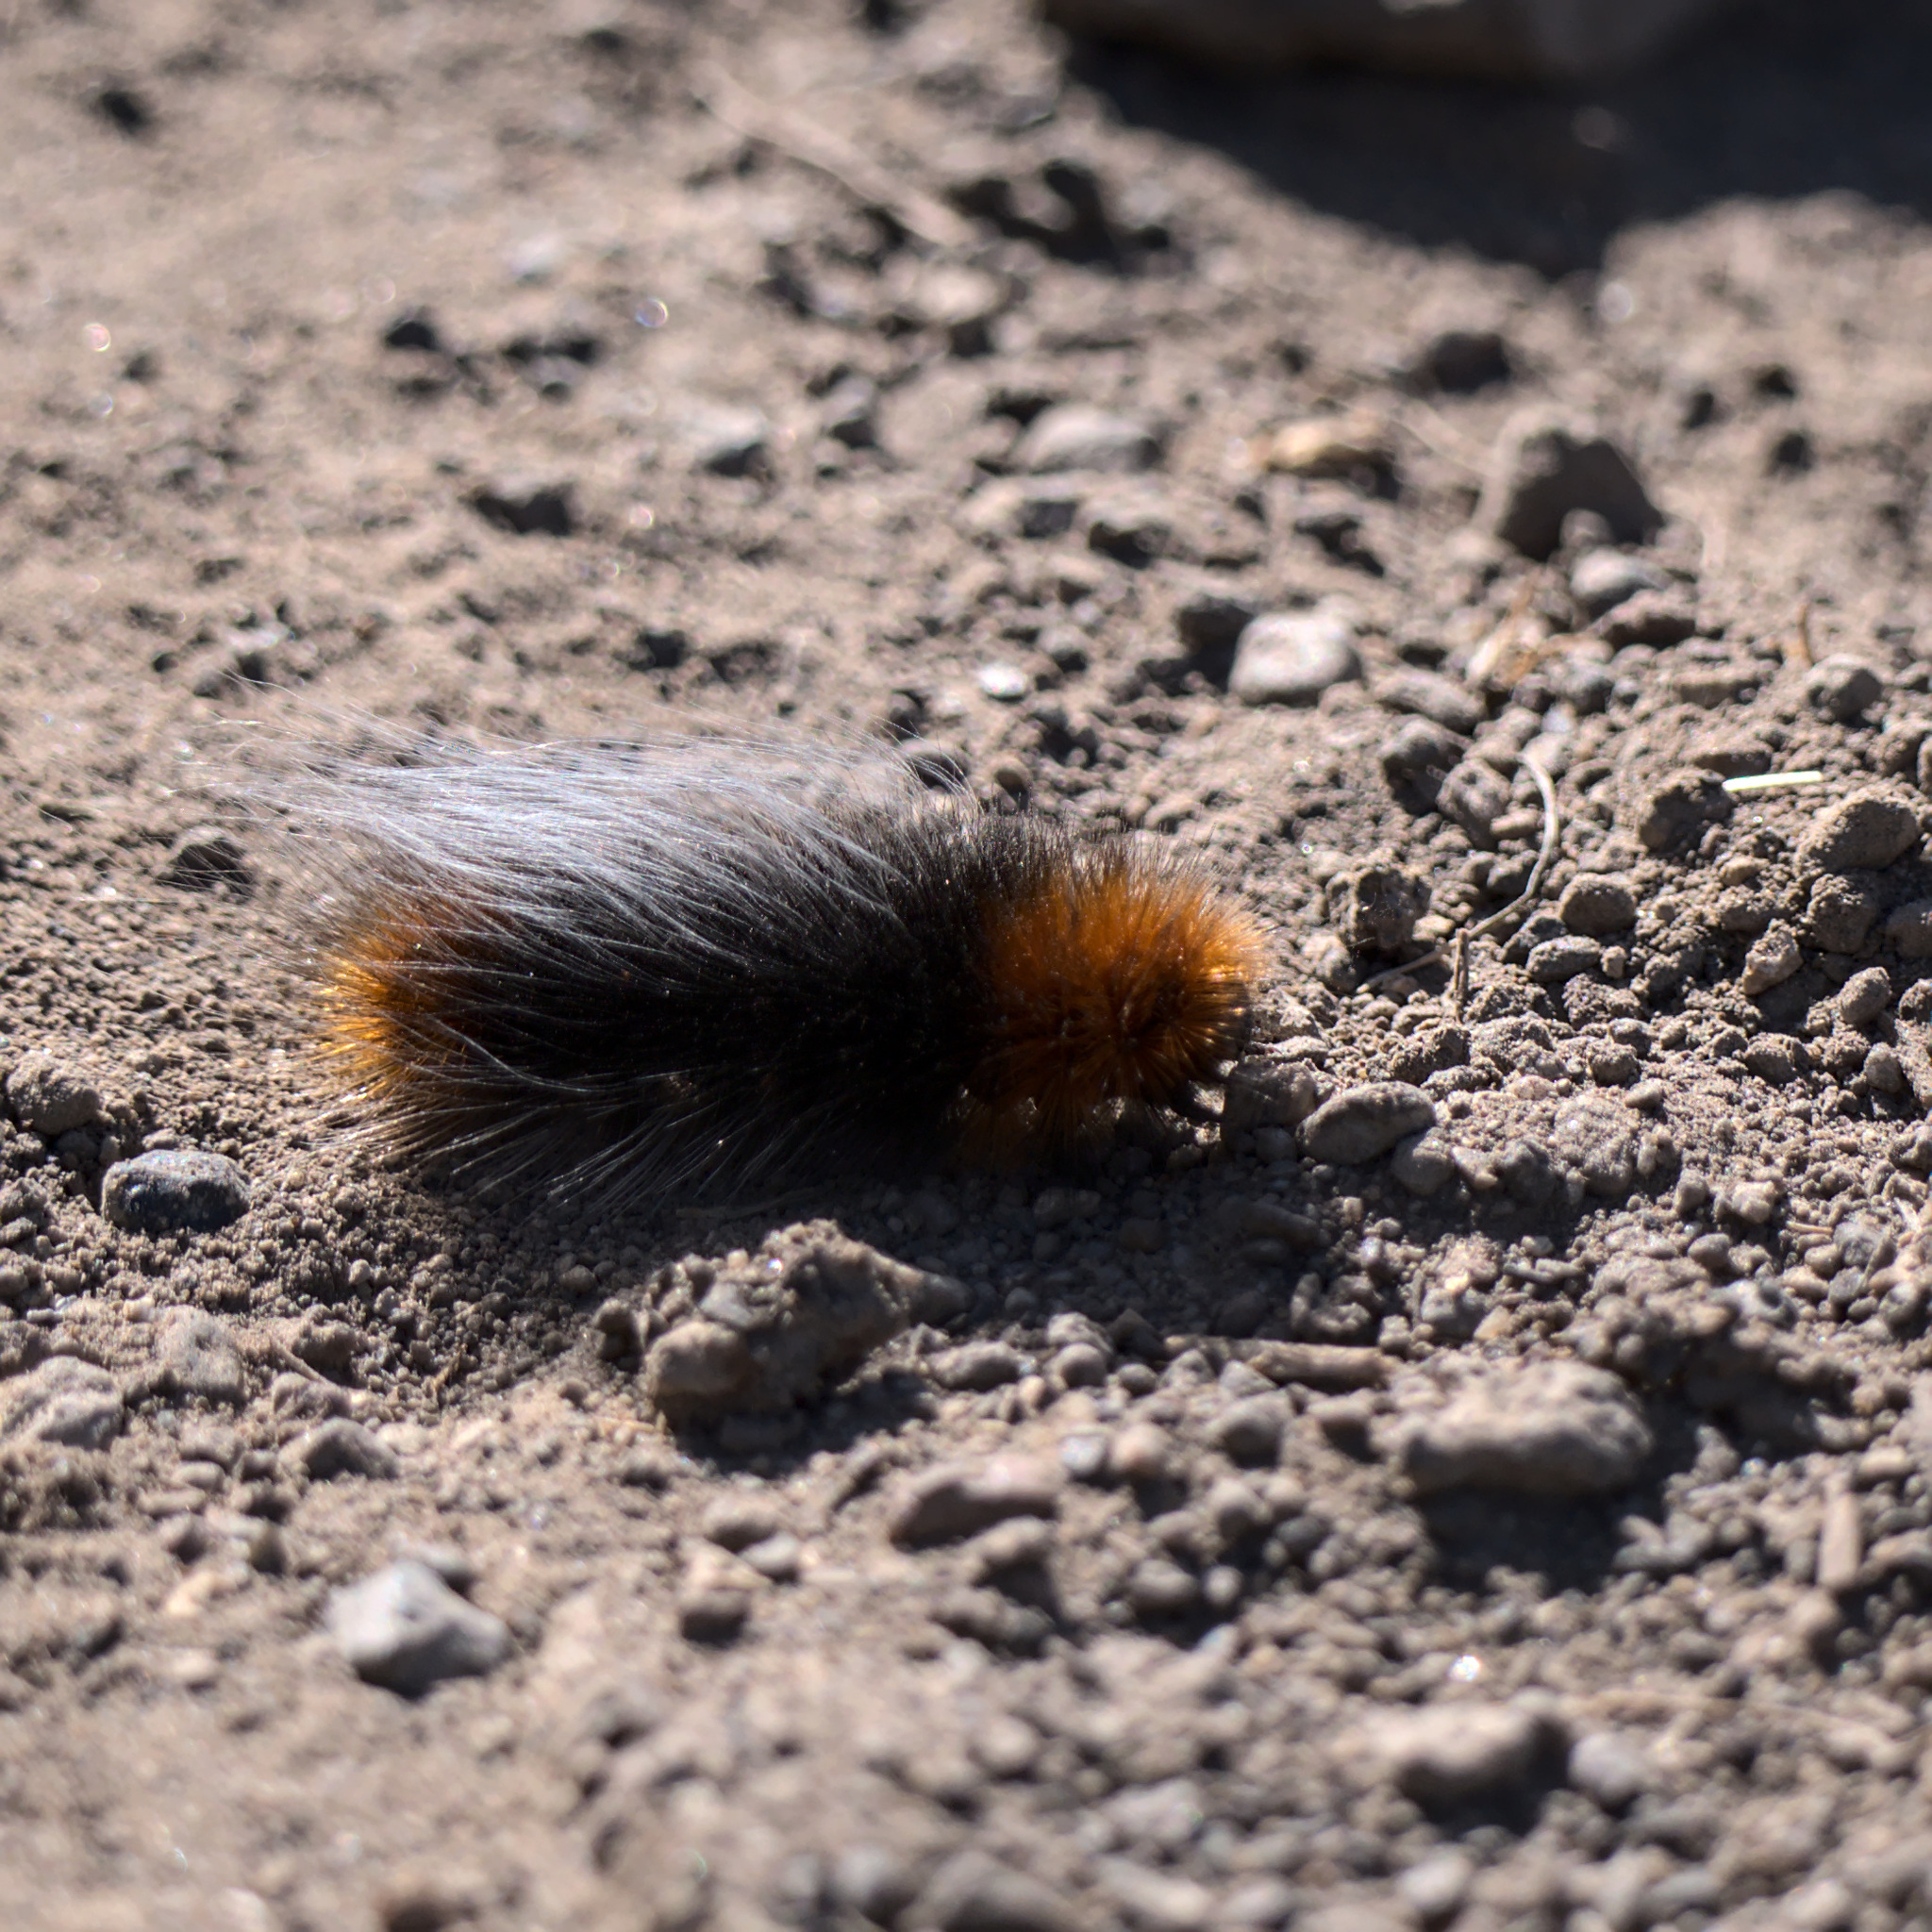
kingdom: Animalia
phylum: Arthropoda
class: Insecta
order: Lepidoptera
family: Erebidae
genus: Arctia
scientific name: Arctia tigrina
